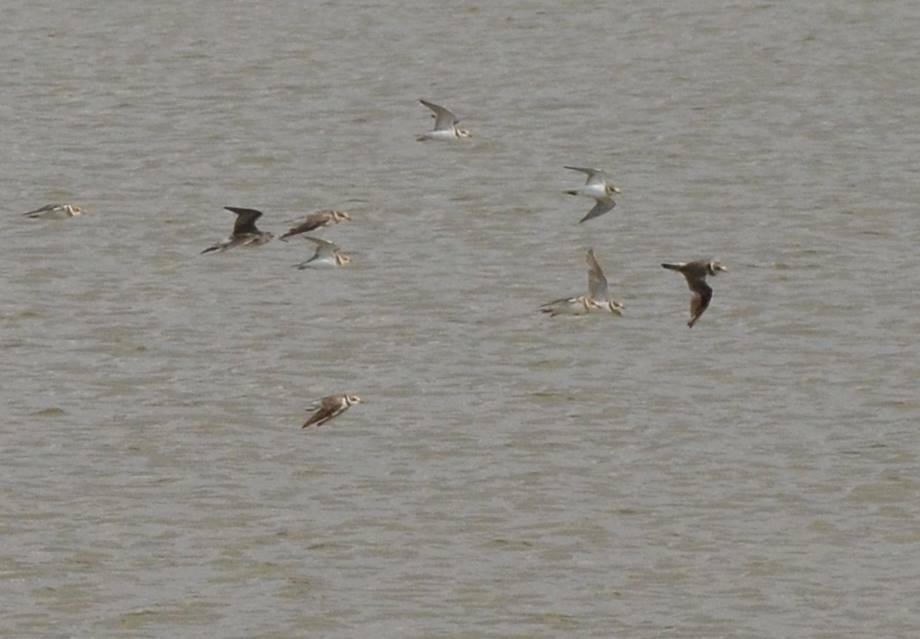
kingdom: Animalia
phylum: Chordata
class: Aves
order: Charadriiformes
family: Charadriidae
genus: Charadrius
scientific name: Charadrius hiaticula
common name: Common ringed plover
